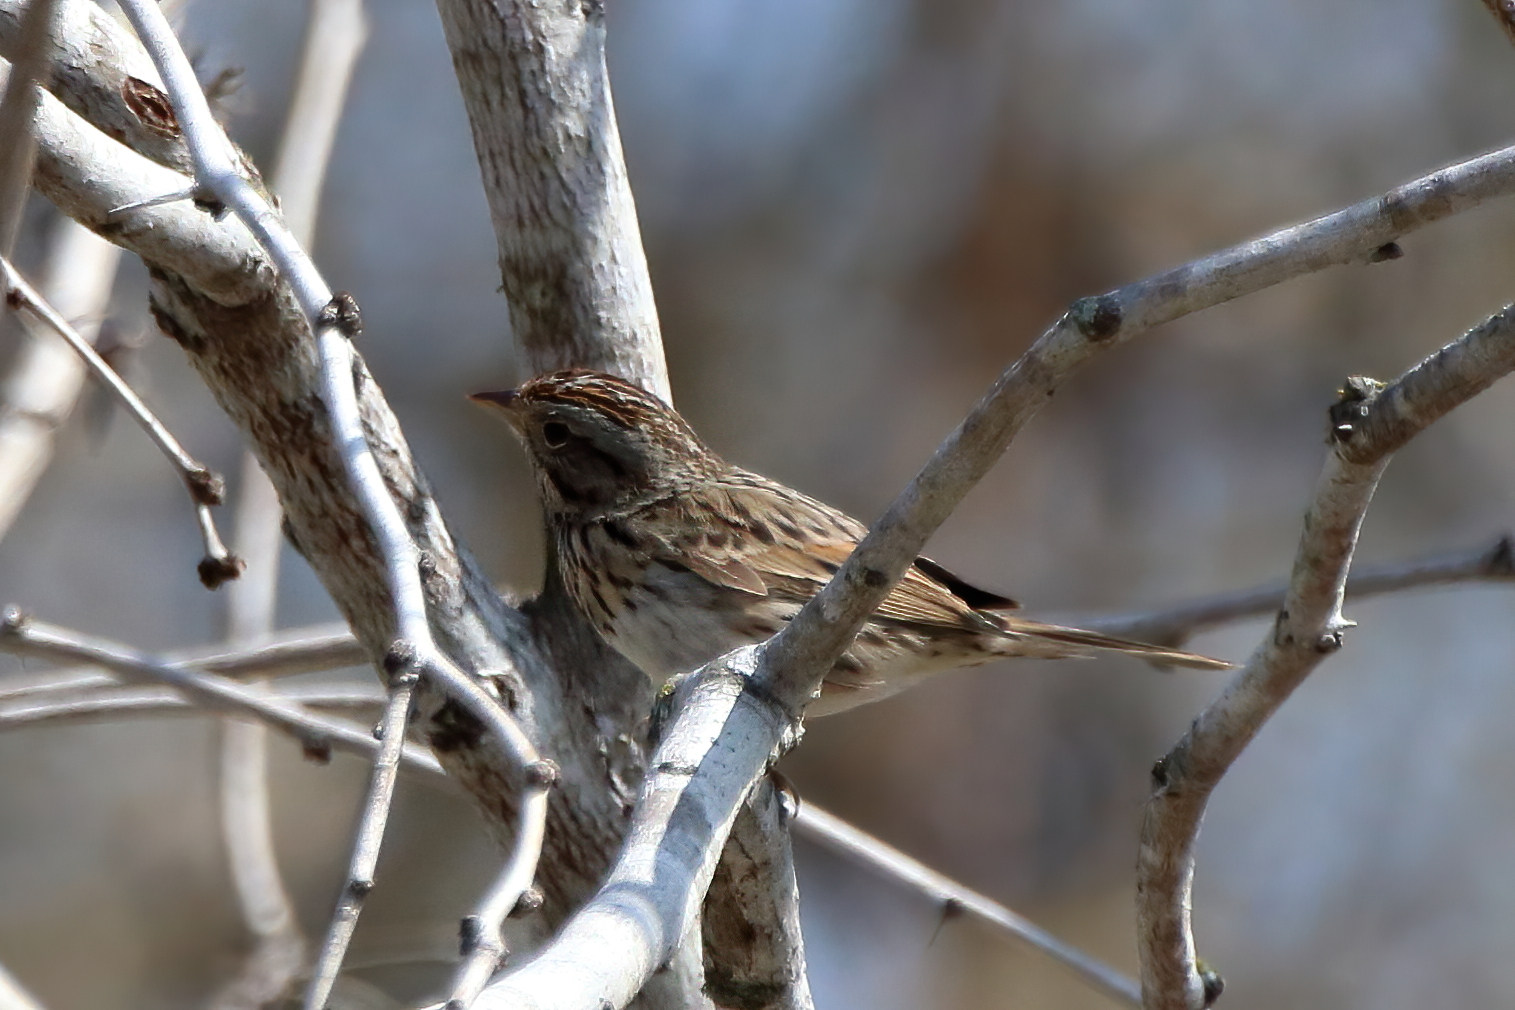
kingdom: Animalia
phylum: Chordata
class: Aves
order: Passeriformes
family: Passerellidae
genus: Melospiza
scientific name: Melospiza lincolnii
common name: Lincoln's sparrow
